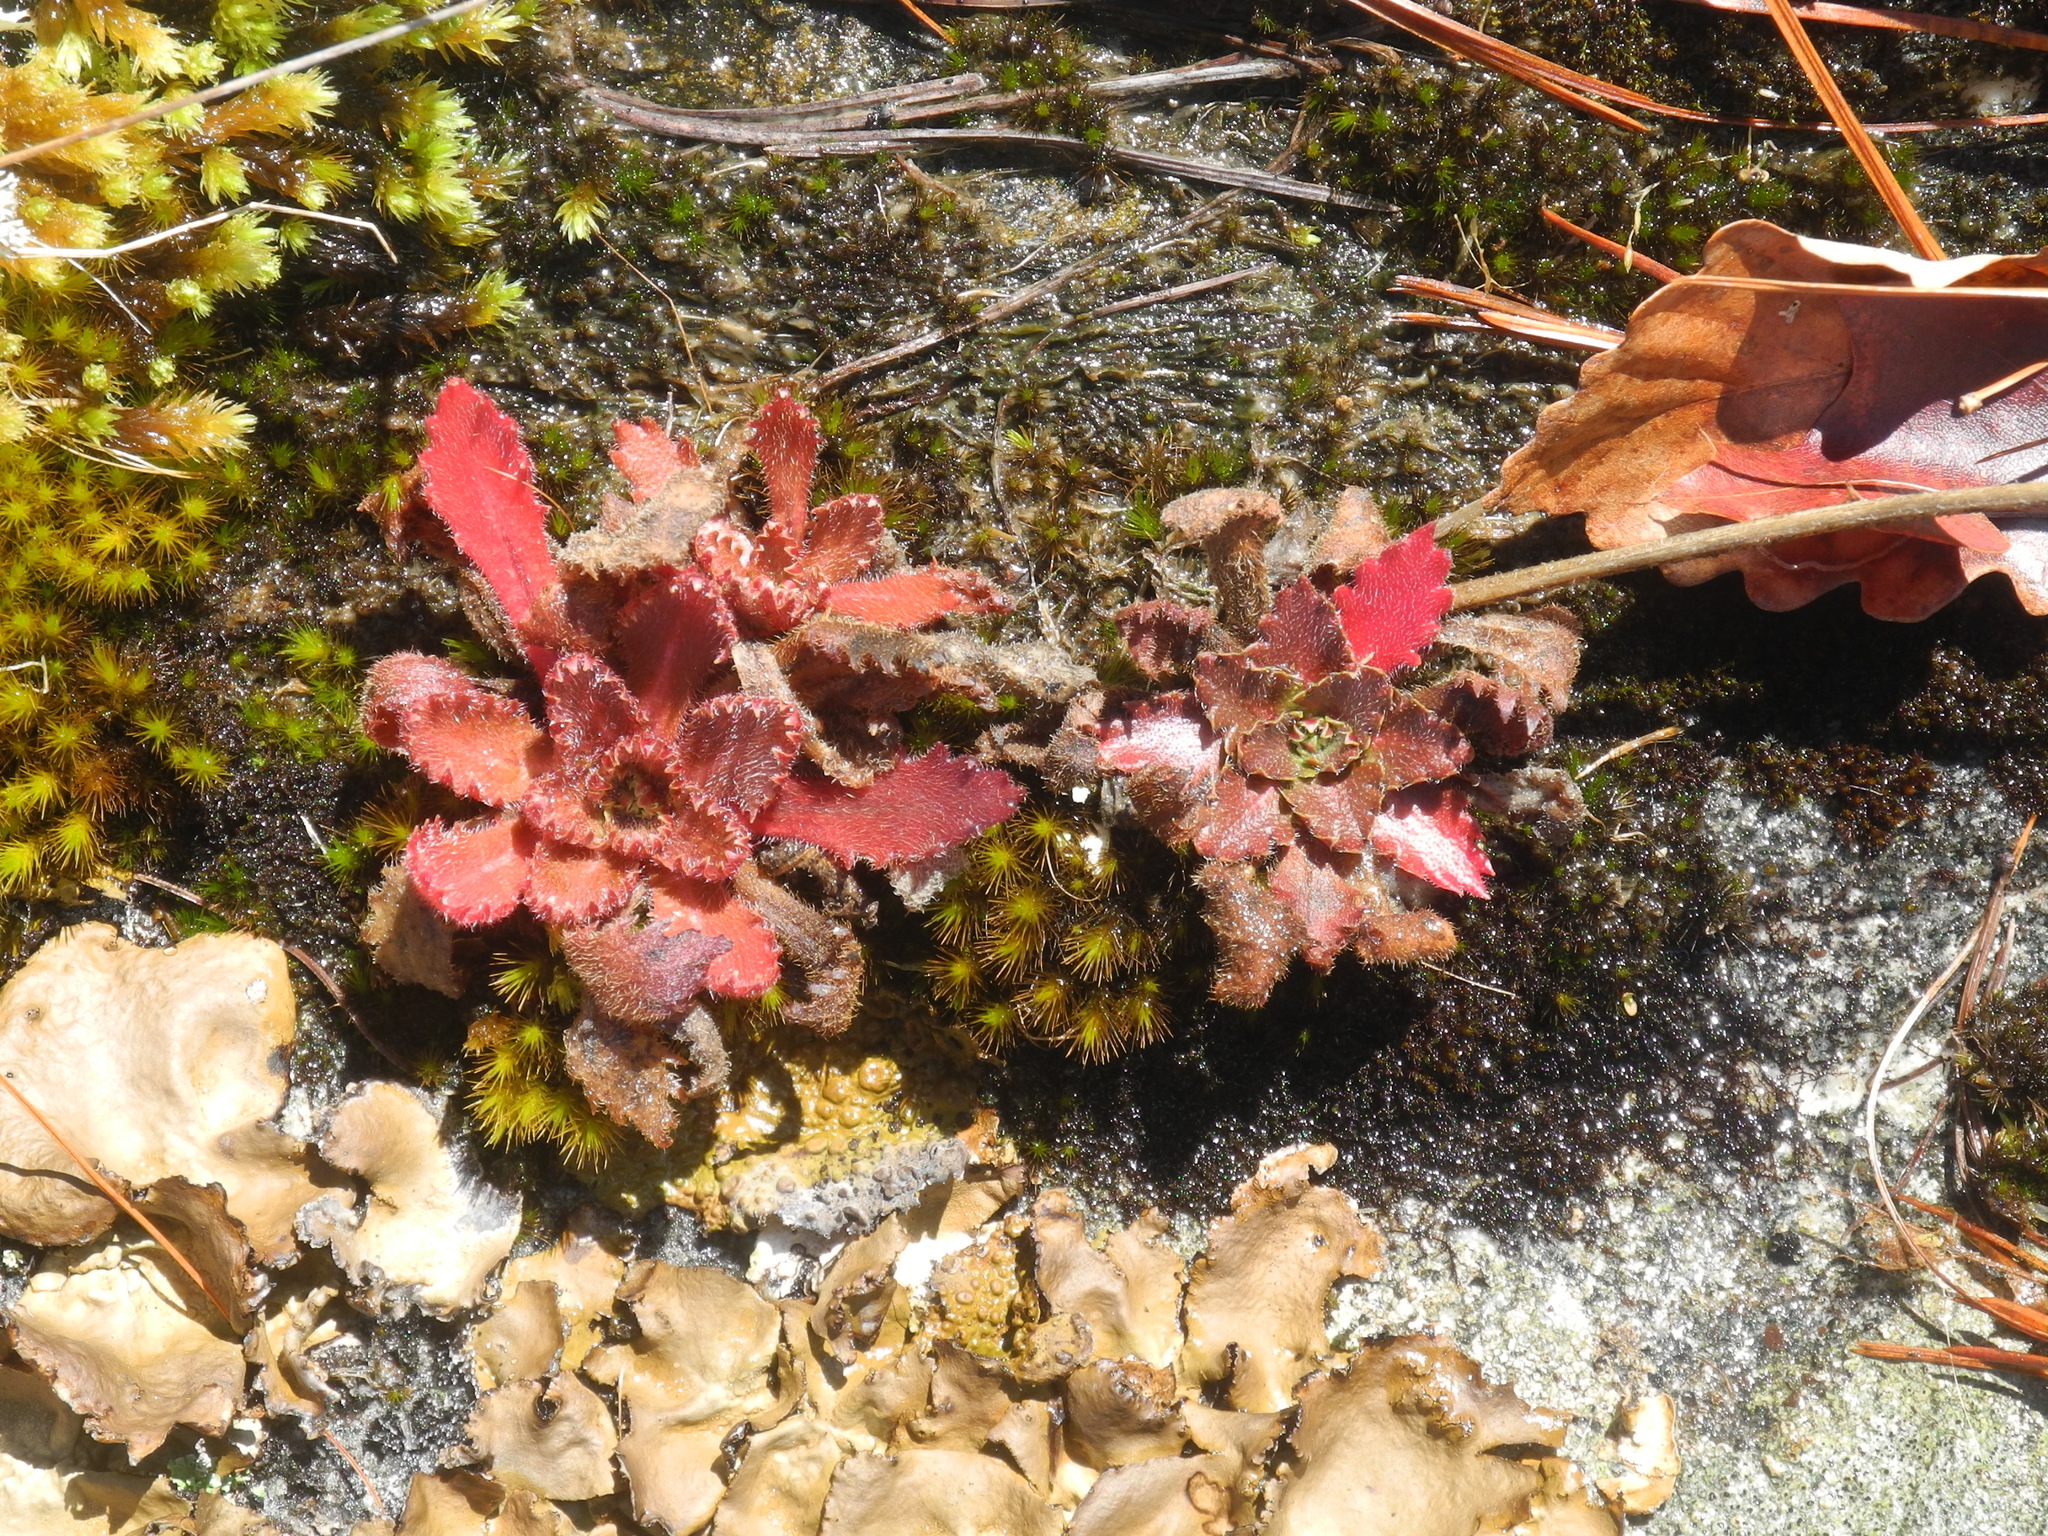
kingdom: Plantae
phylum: Tracheophyta
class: Magnoliopsida
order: Saxifragales
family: Saxifragaceae
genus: Micranthes
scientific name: Micranthes petiolaris
